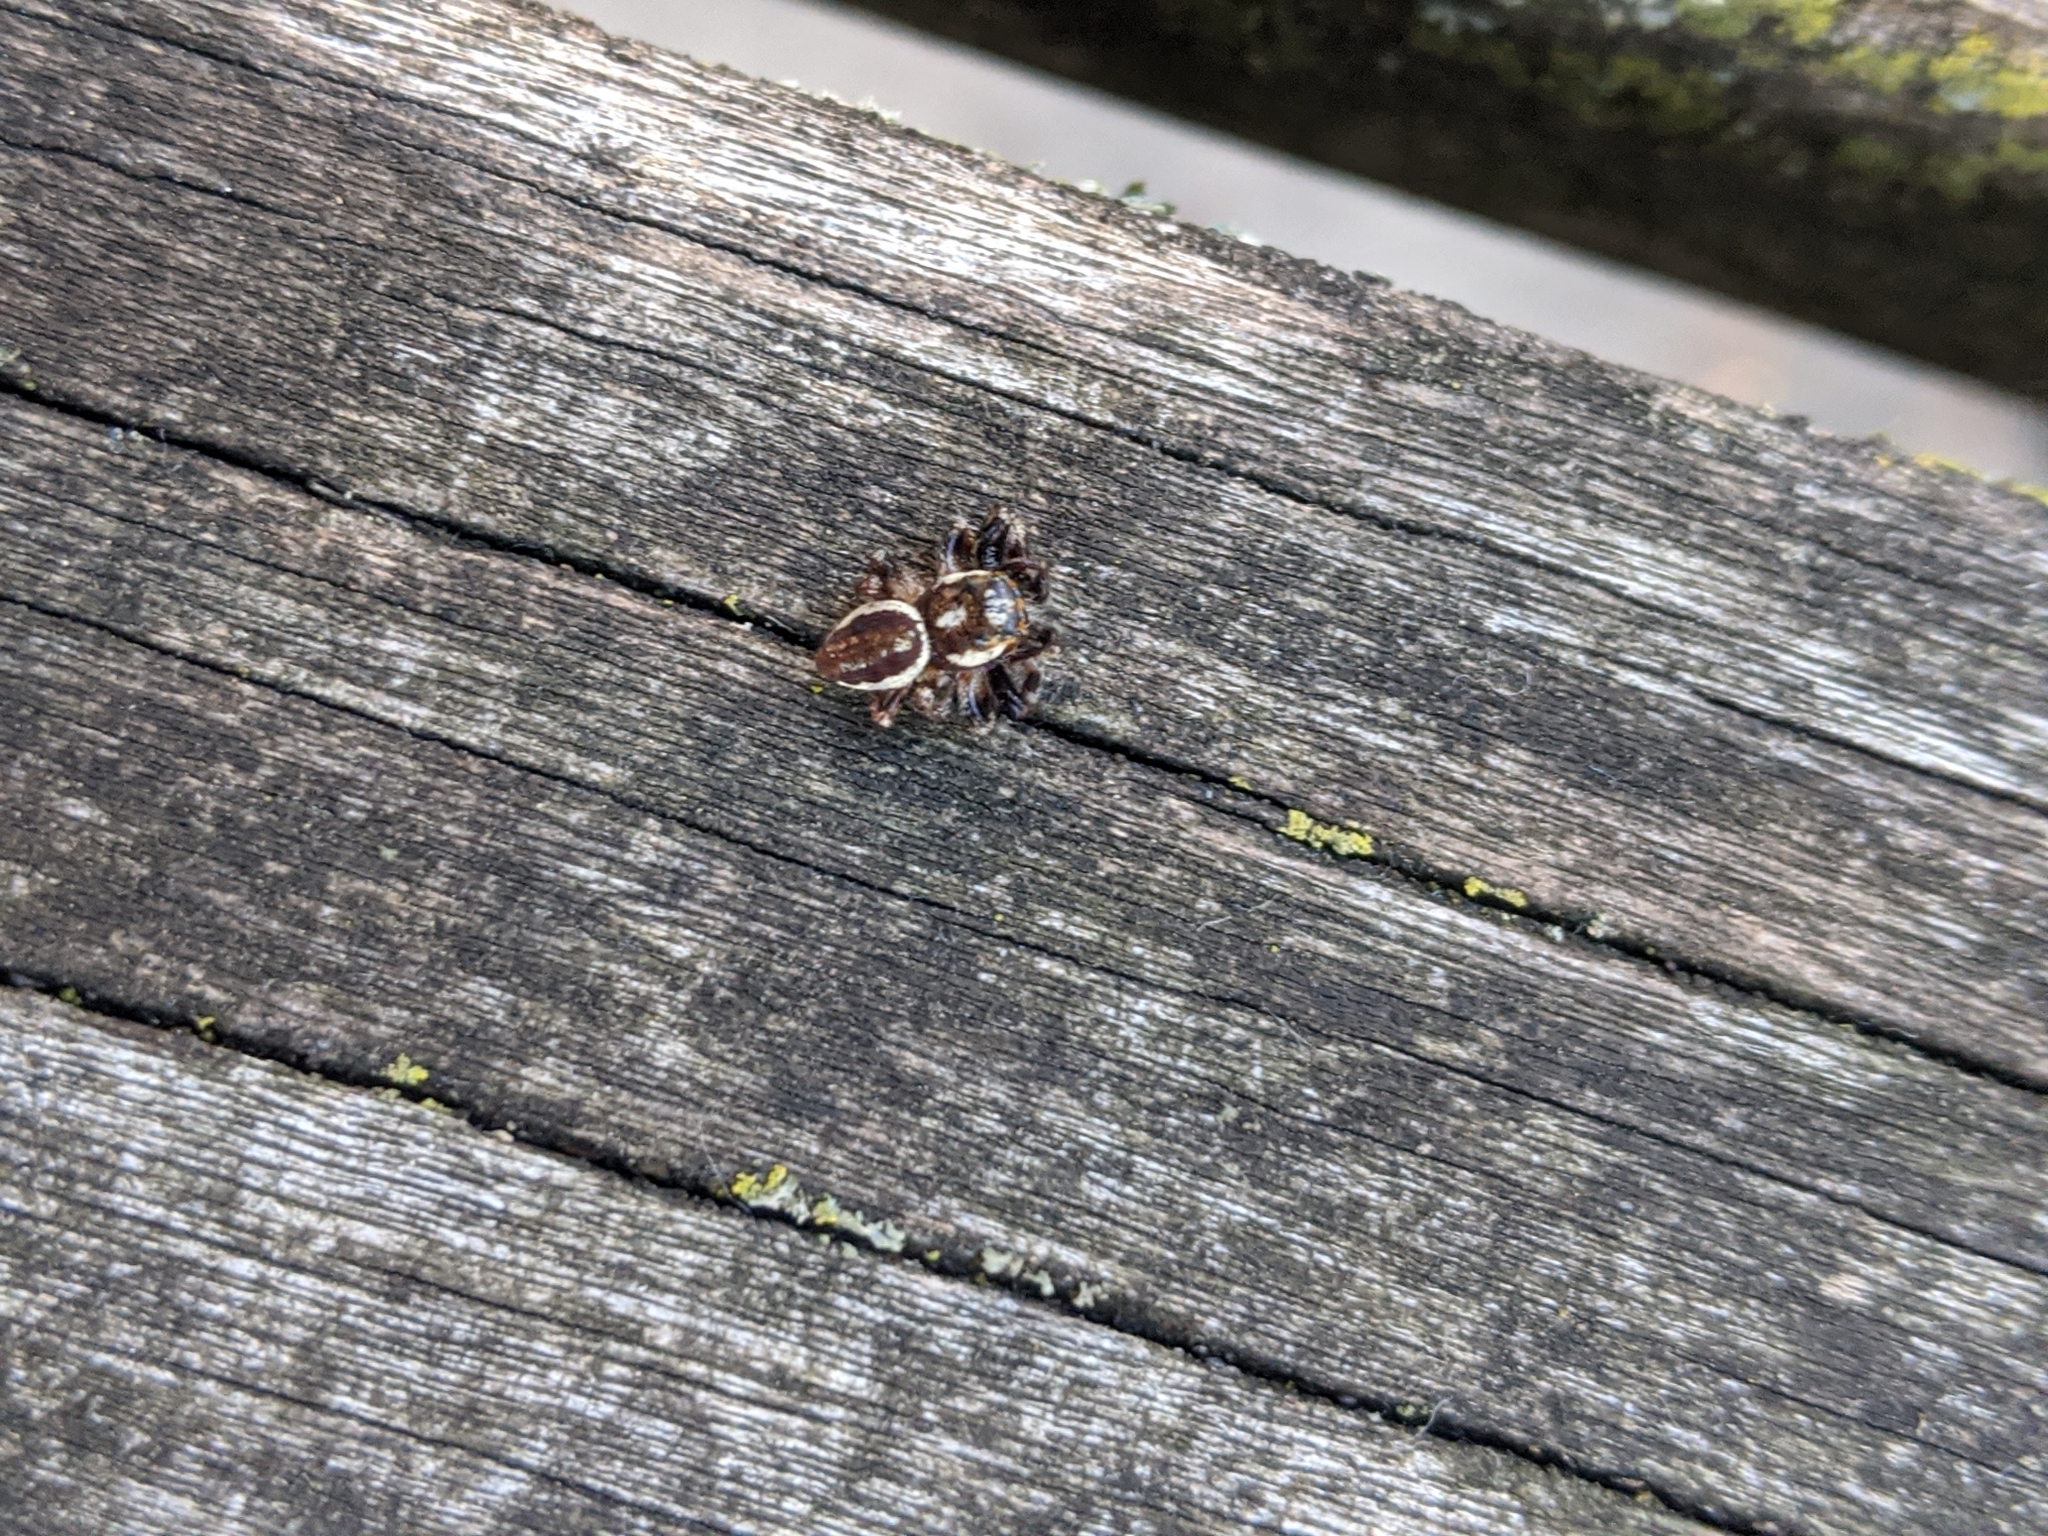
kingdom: Animalia
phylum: Arthropoda
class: Arachnida
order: Araneae
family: Salticidae
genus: Eris
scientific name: Eris militaris
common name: Bronze jumper
